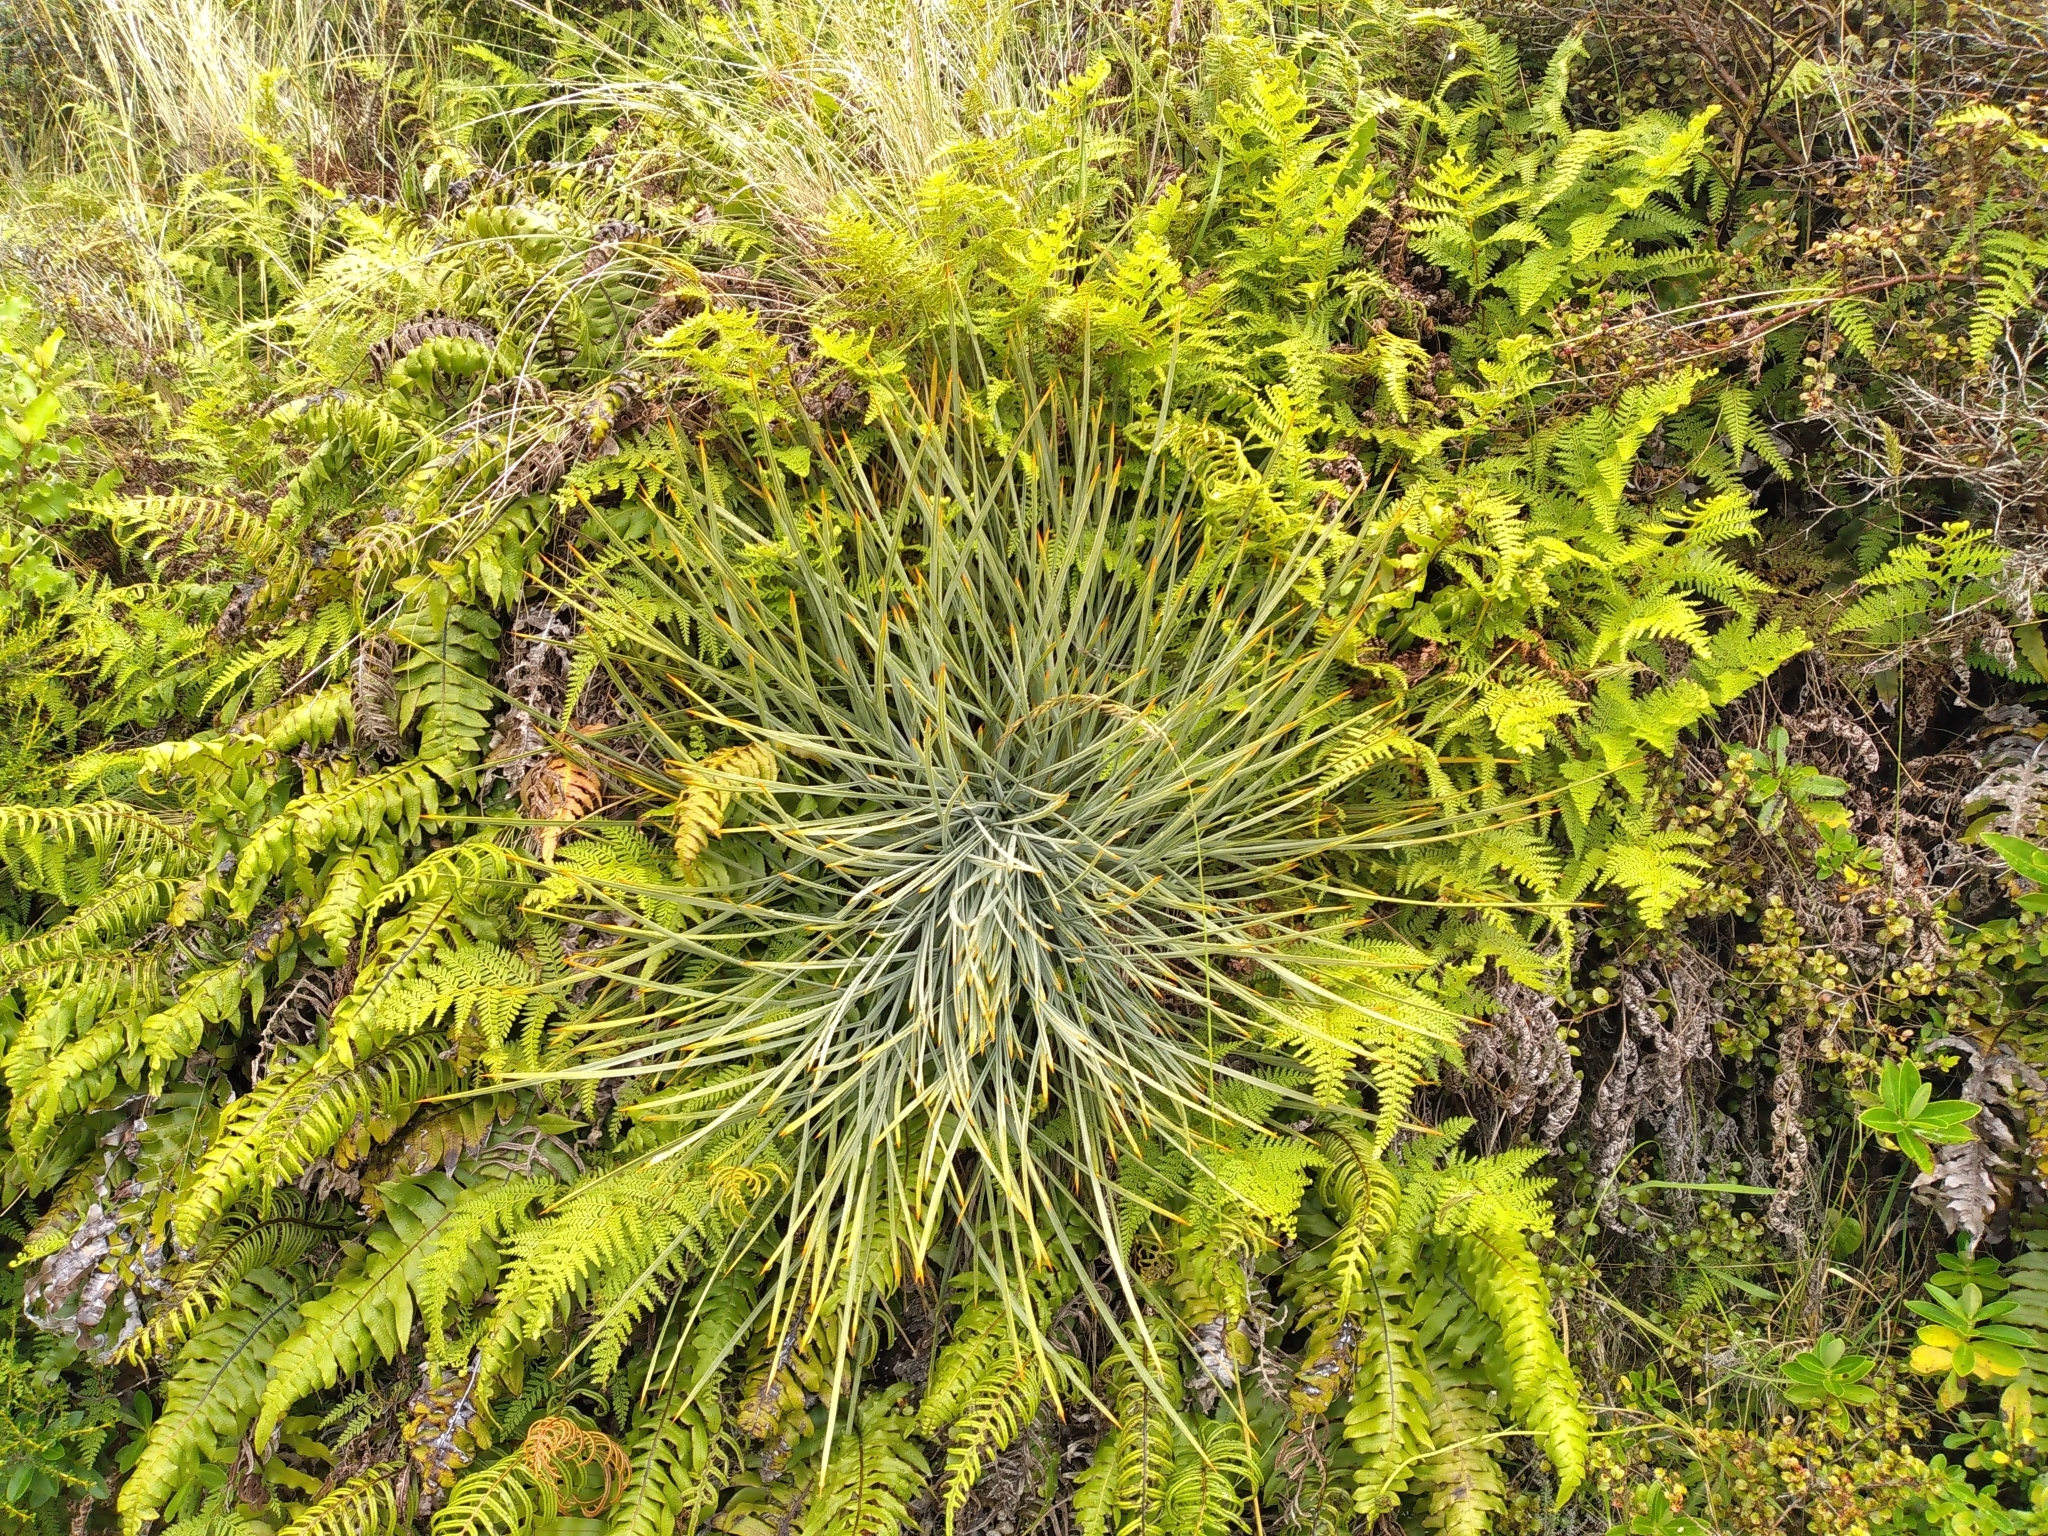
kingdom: Plantae
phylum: Tracheophyta
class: Magnoliopsida
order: Apiales
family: Apiaceae
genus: Aciphylla
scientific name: Aciphylla squarrosa
